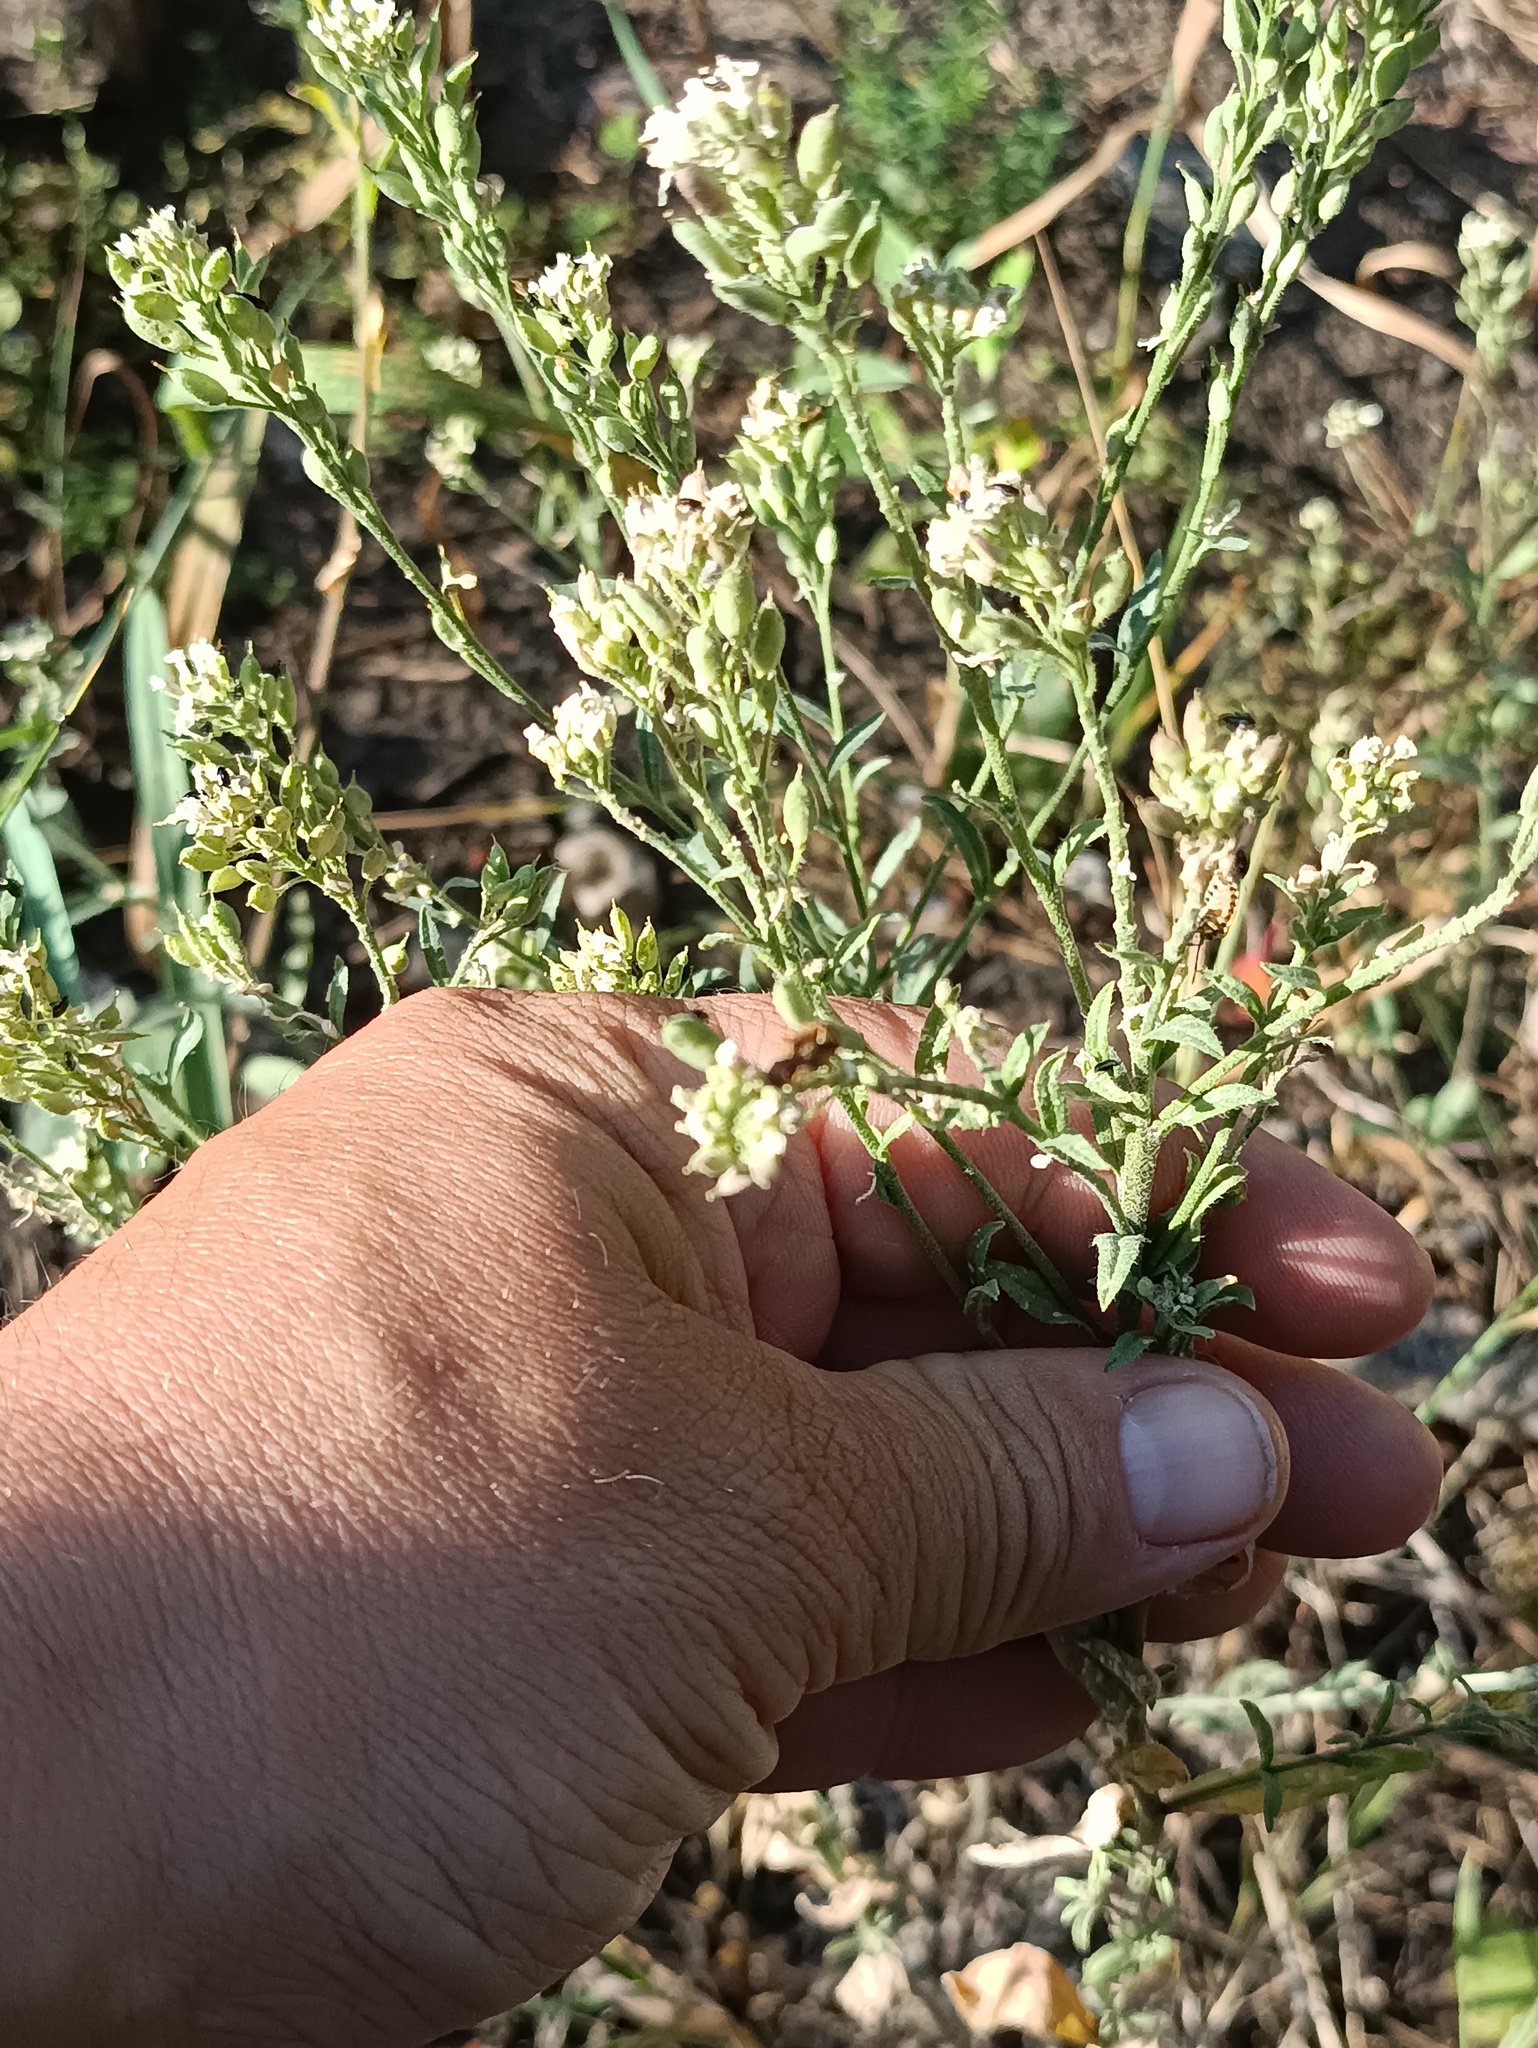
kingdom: Plantae
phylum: Tracheophyta
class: Magnoliopsida
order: Brassicales
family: Brassicaceae
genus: Berteroa
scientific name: Berteroa incana
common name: Hoary alison
